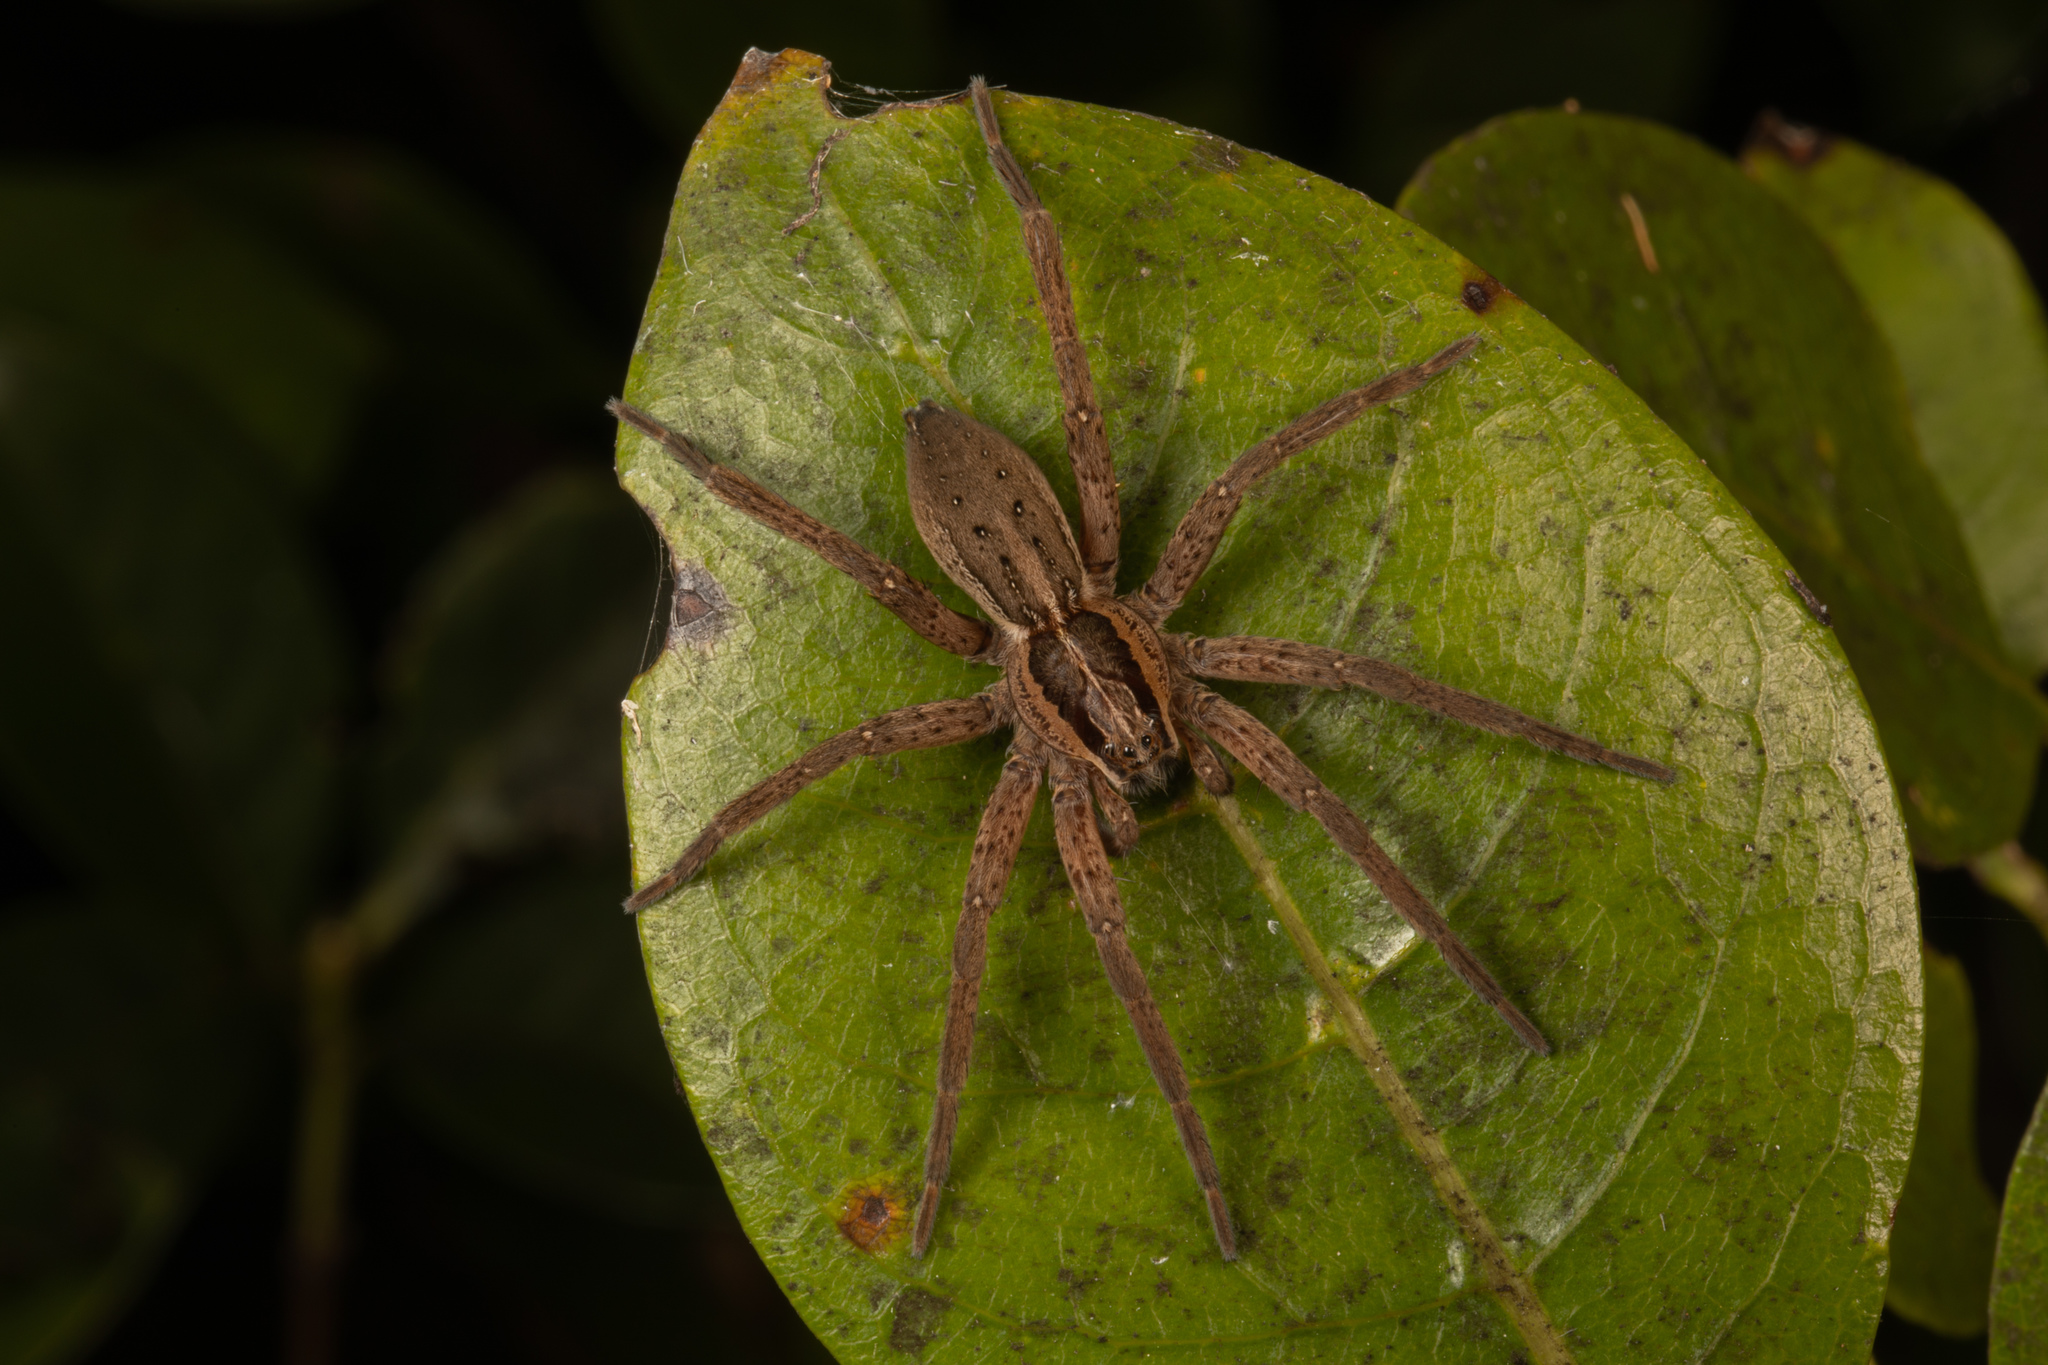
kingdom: Animalia
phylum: Arthropoda
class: Arachnida
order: Araneae
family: Pisauridae
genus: Dolomedes
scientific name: Dolomedes minor
